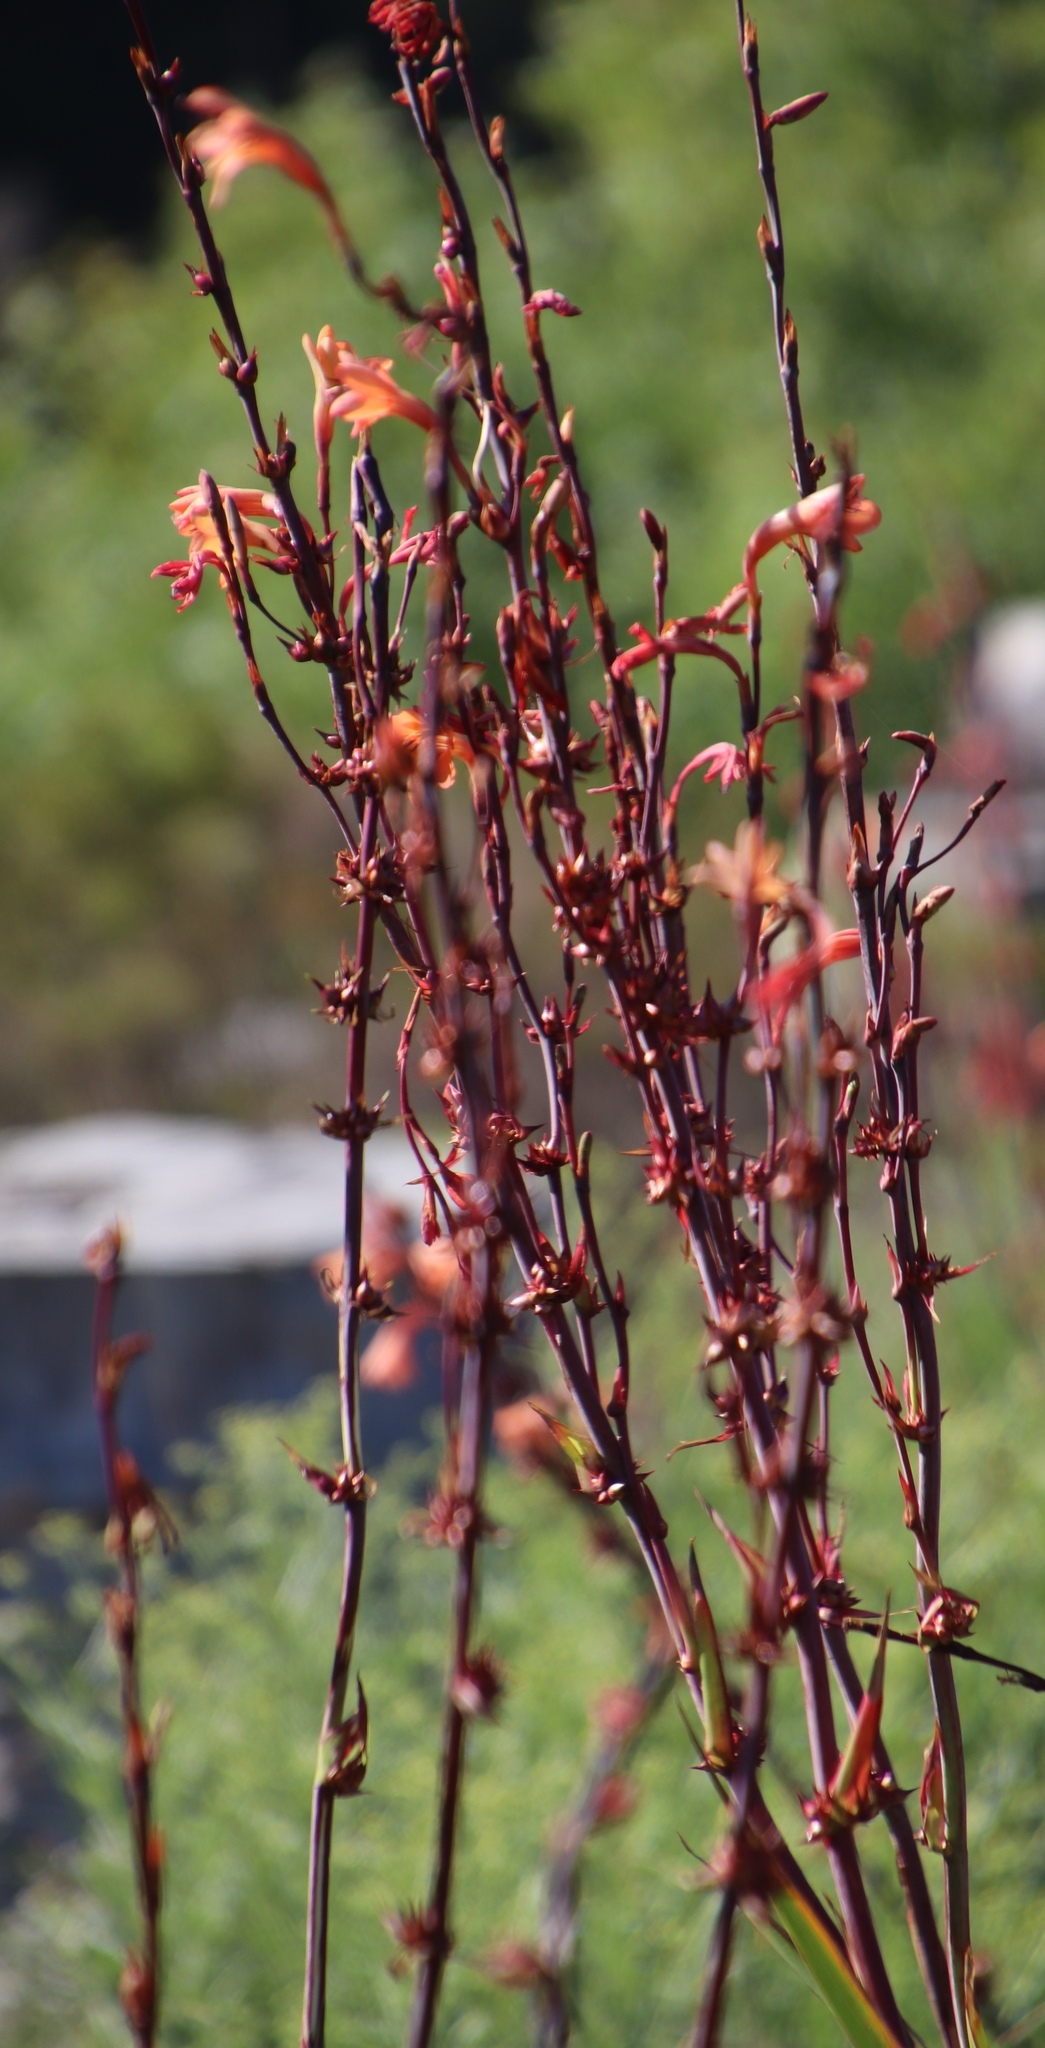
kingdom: Plantae
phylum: Tracheophyta
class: Liliopsida
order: Asparagales
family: Iridaceae
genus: Watsonia
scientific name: Watsonia meriana
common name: Bulbil bugle-lily
